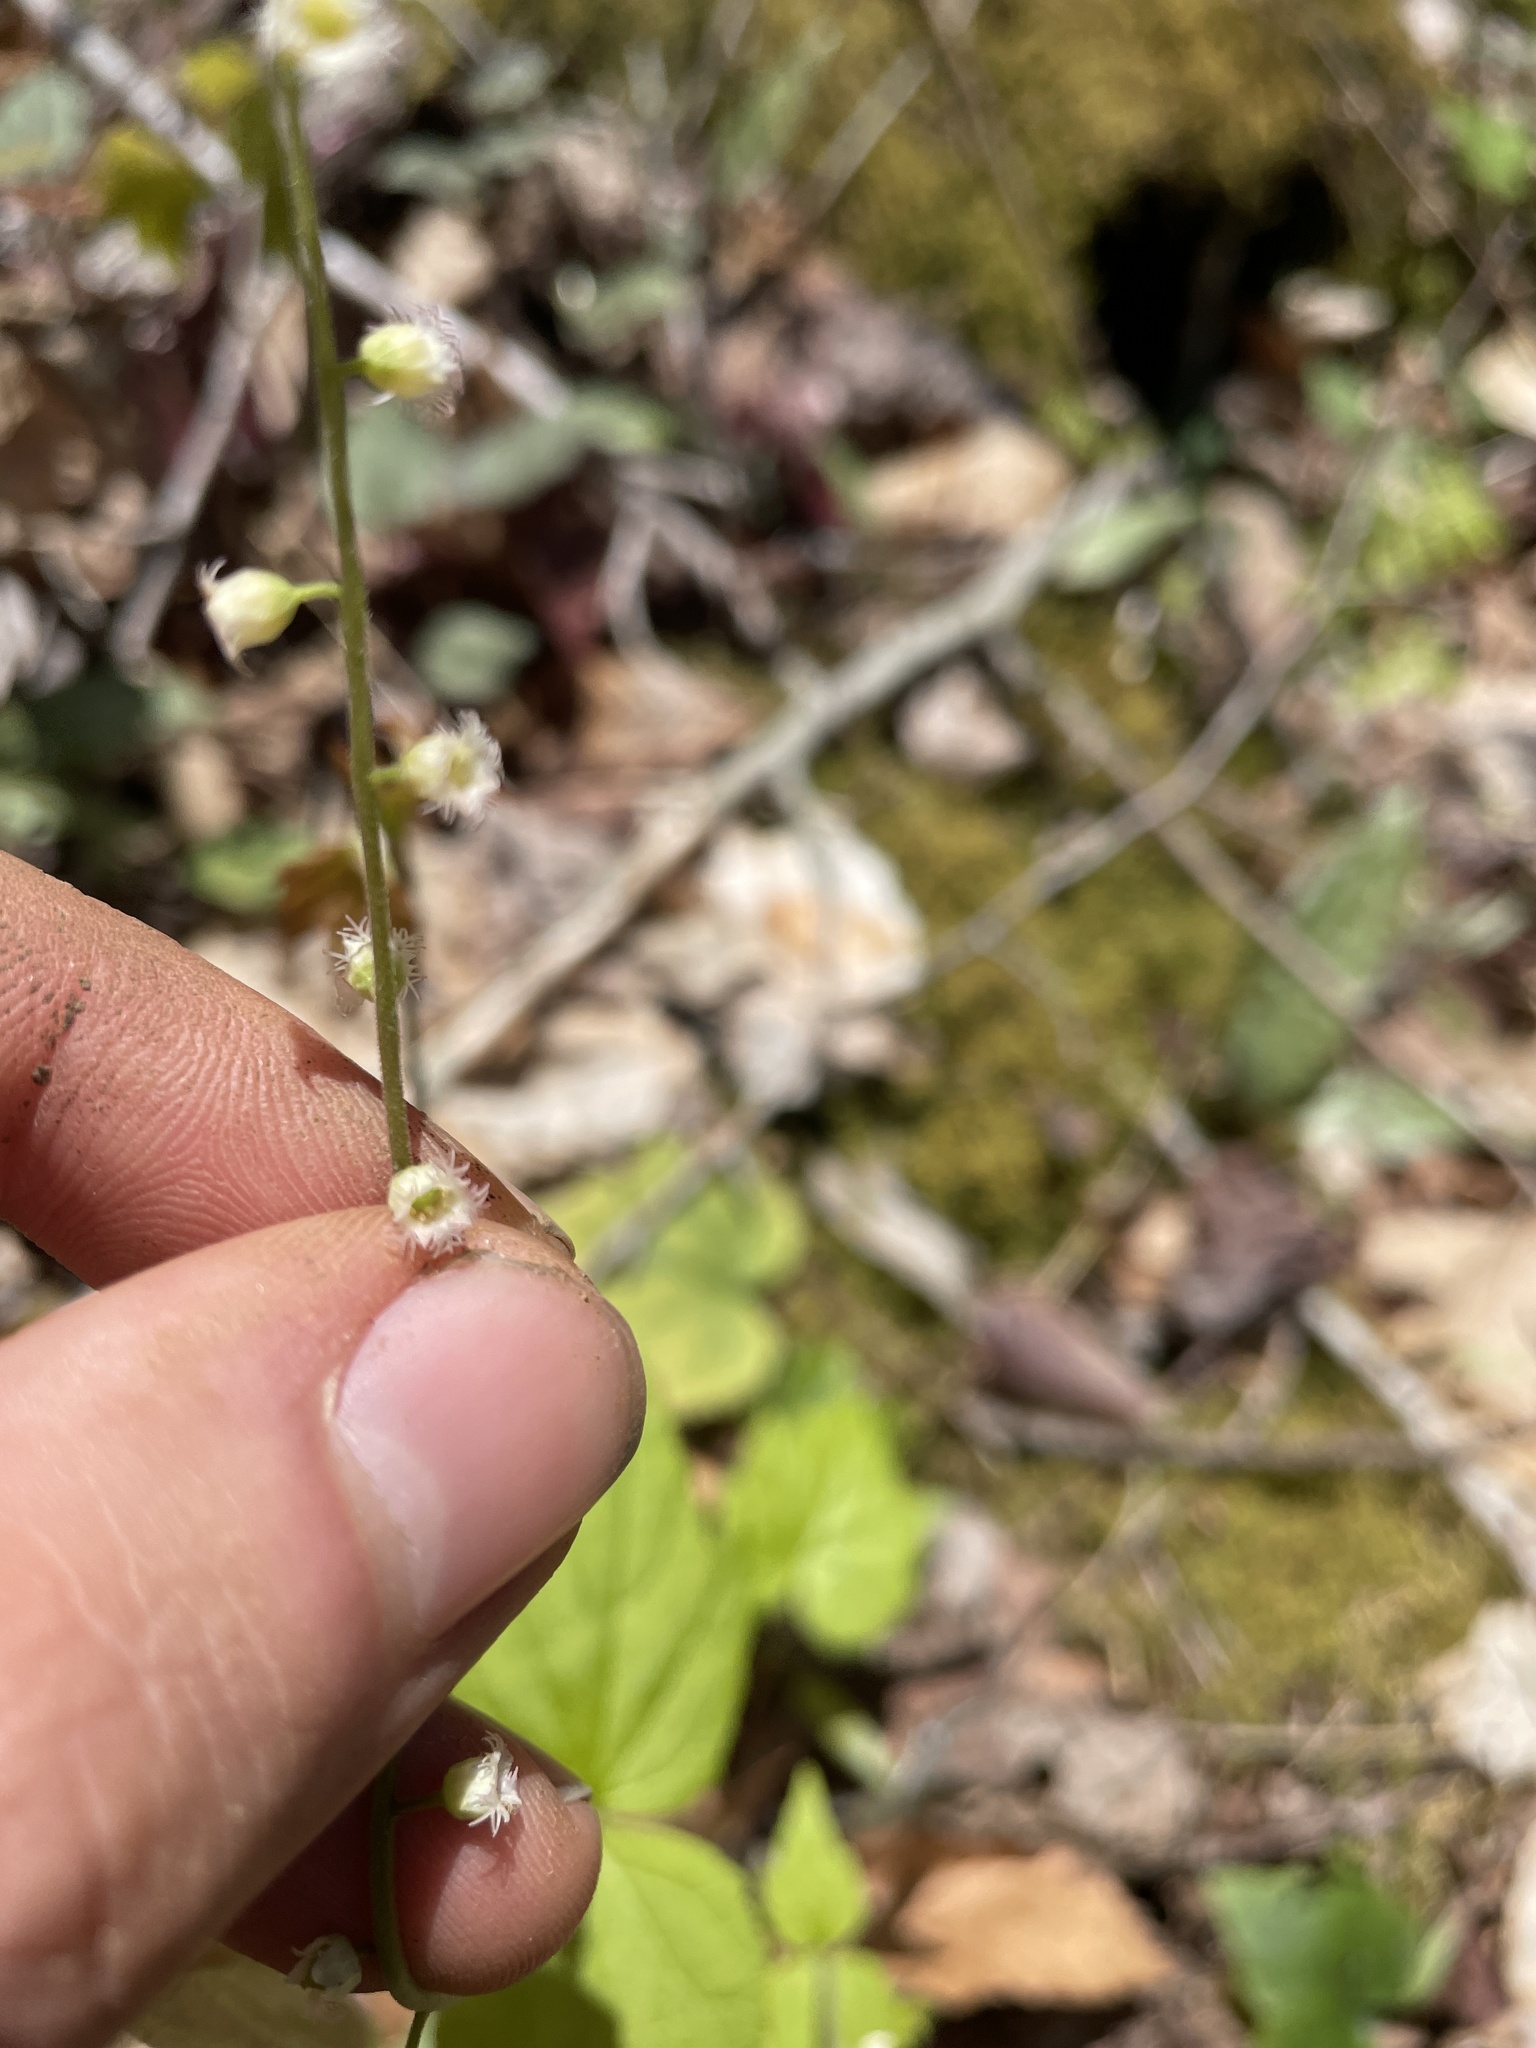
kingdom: Plantae
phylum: Tracheophyta
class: Magnoliopsida
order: Saxifragales
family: Saxifragaceae
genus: Mitella
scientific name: Mitella diphylla
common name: Coolwort
